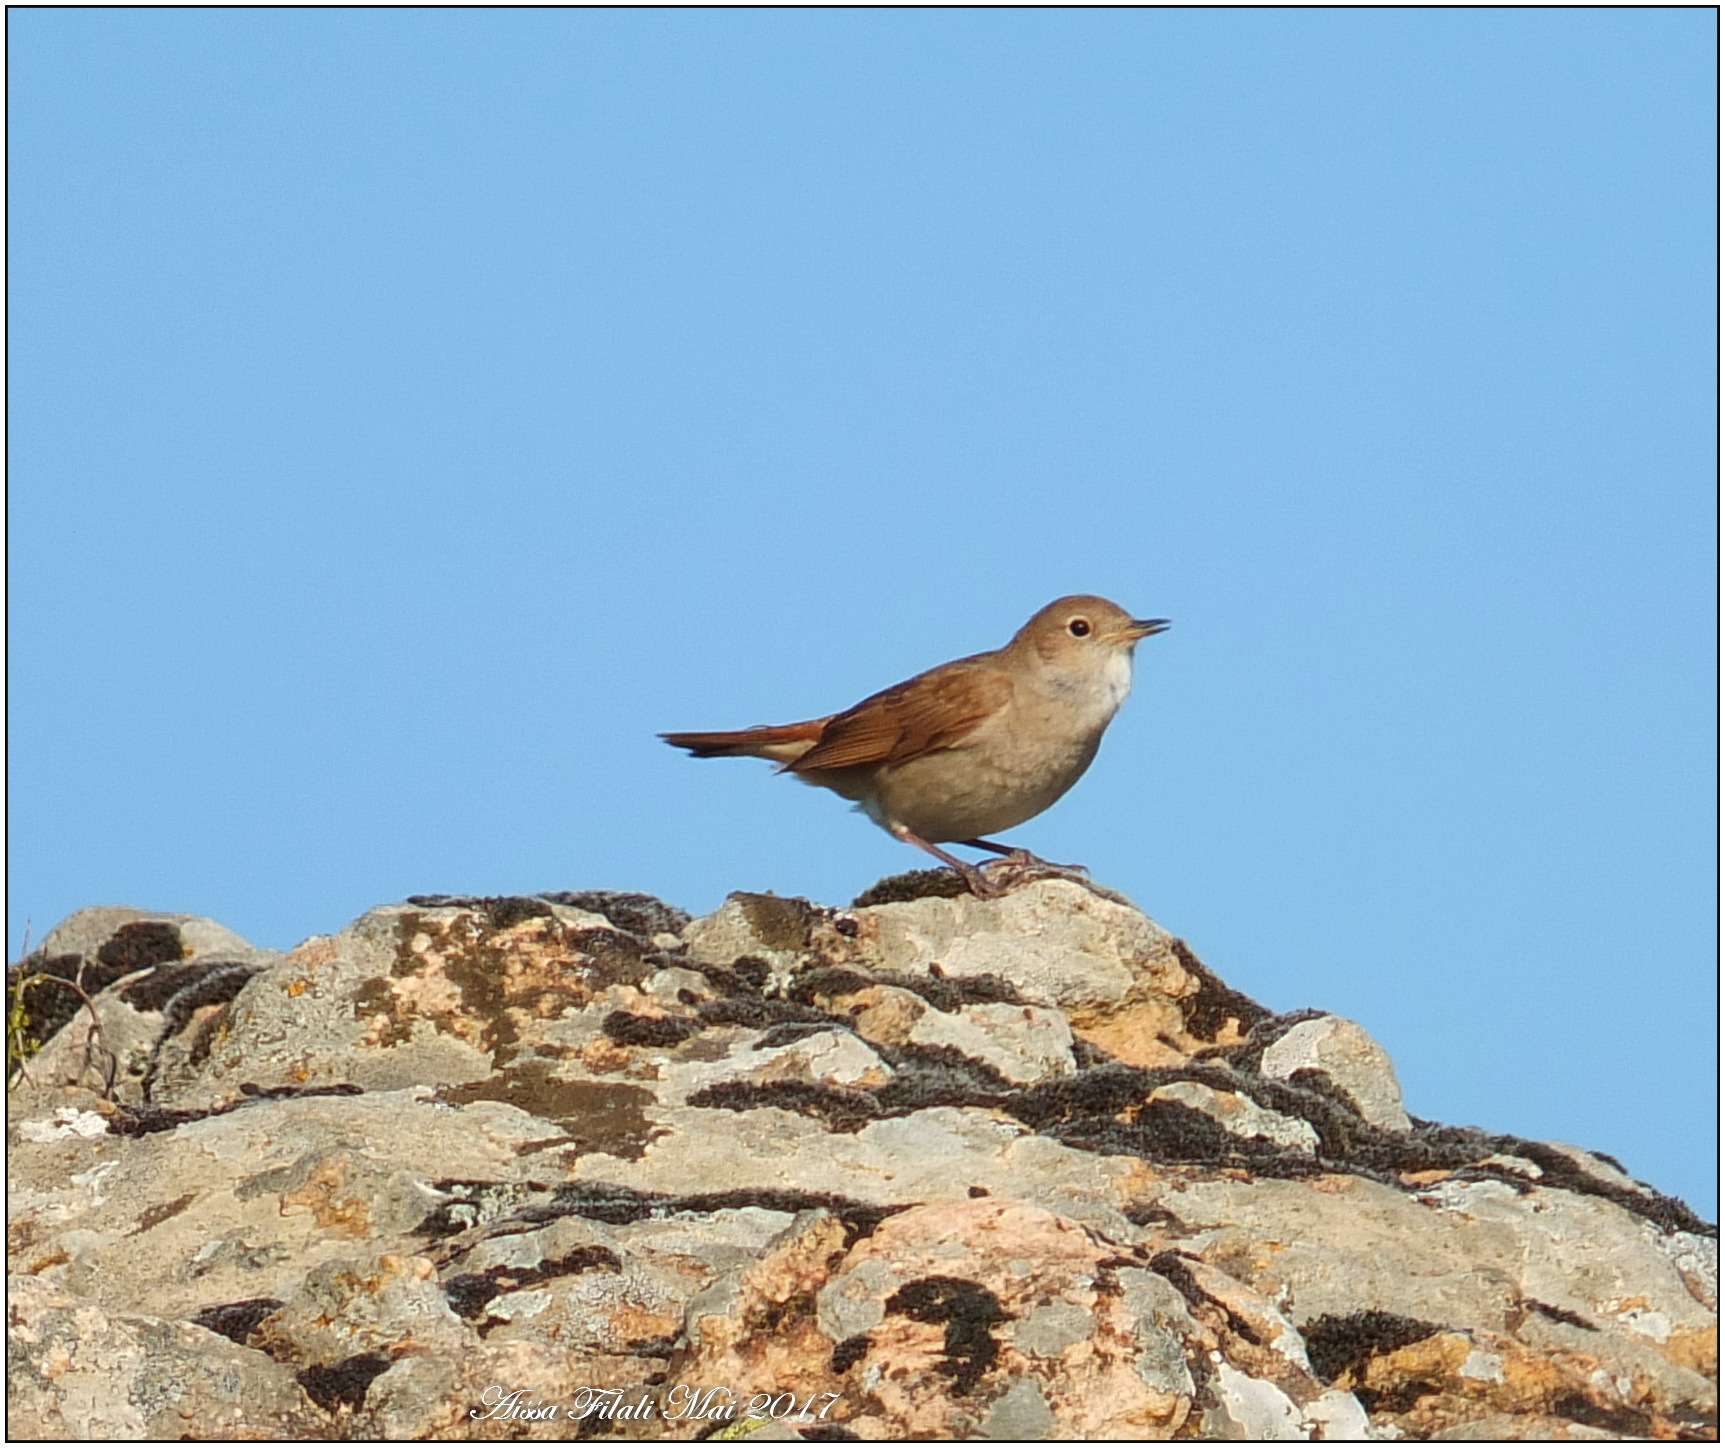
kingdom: Animalia
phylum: Chordata
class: Aves
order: Passeriformes
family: Muscicapidae
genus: Luscinia
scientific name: Luscinia megarhynchos
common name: Common nightingale
